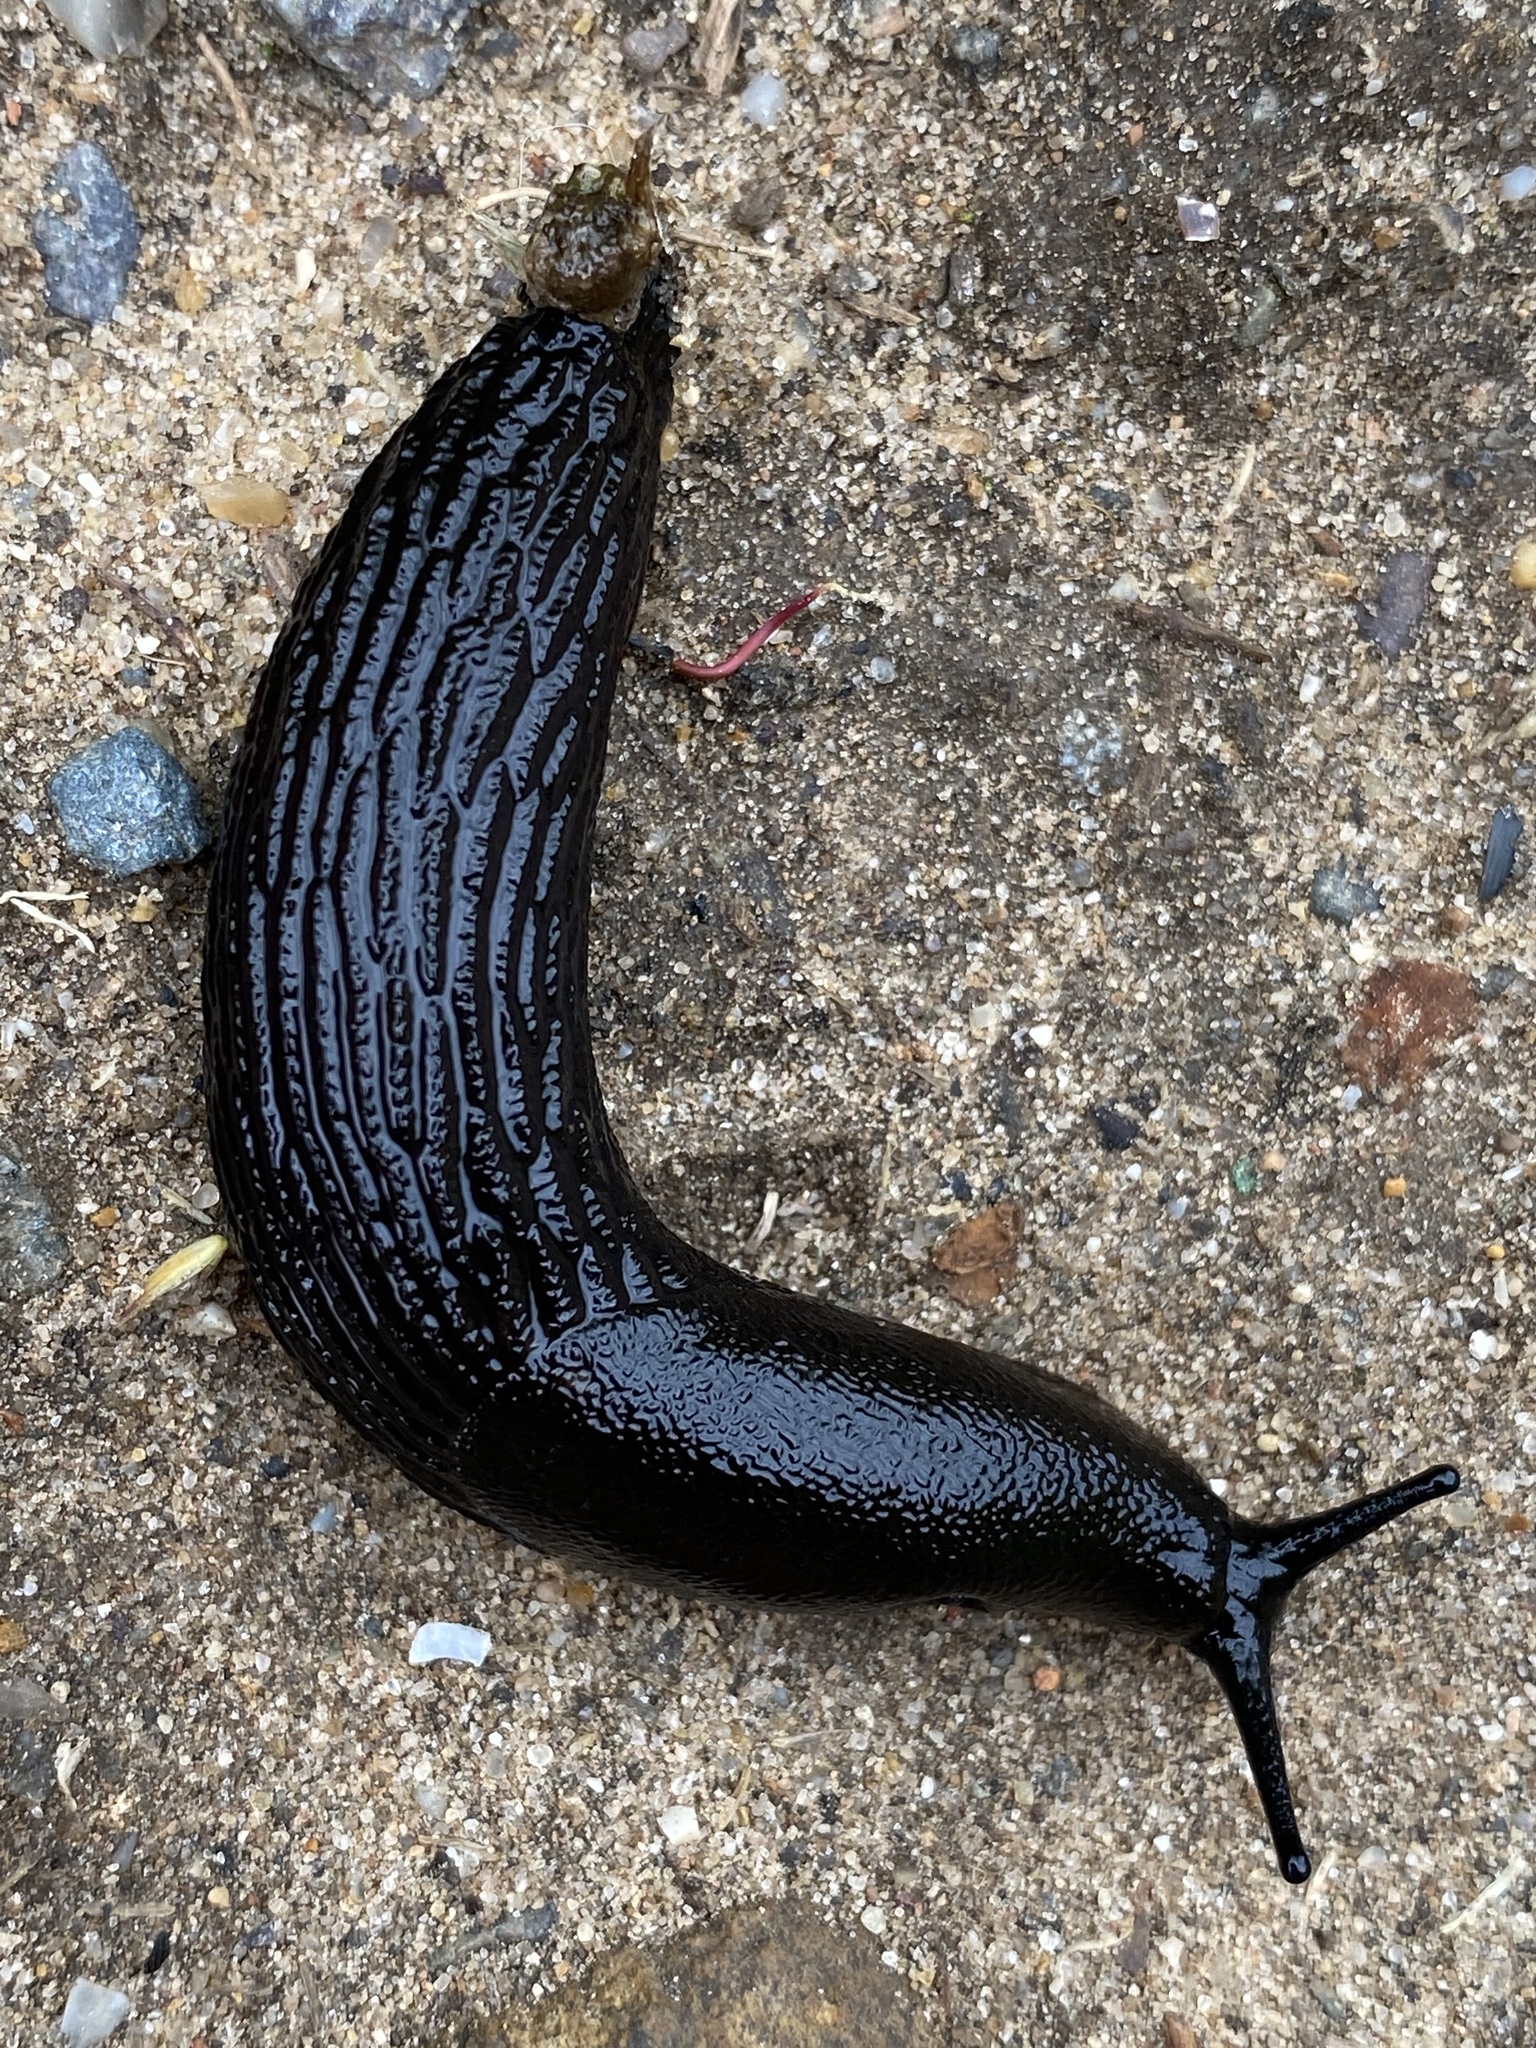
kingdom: Animalia
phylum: Mollusca
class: Gastropoda
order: Stylommatophora
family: Arionidae
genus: Arion
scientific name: Arion ater
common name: Black arion
